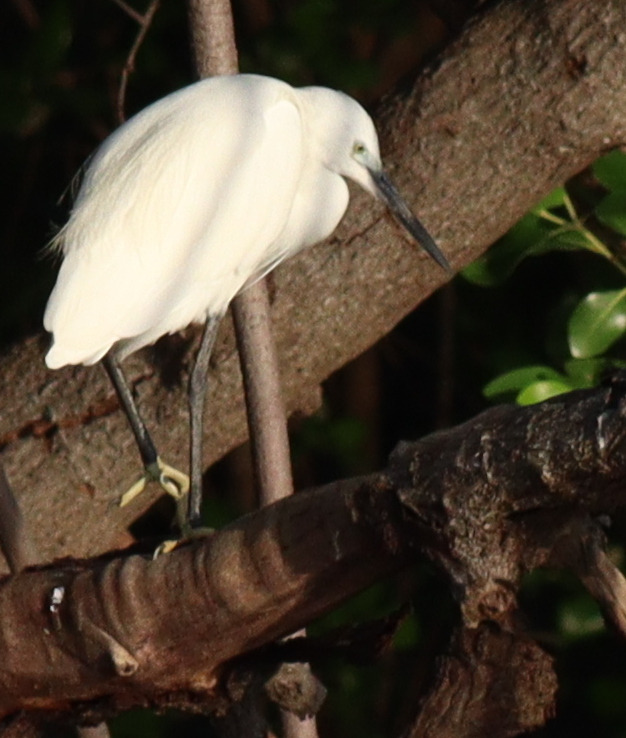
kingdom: Animalia
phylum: Chordata
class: Aves
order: Pelecaniformes
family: Ardeidae
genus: Egretta
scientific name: Egretta garzetta
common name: Little egret
